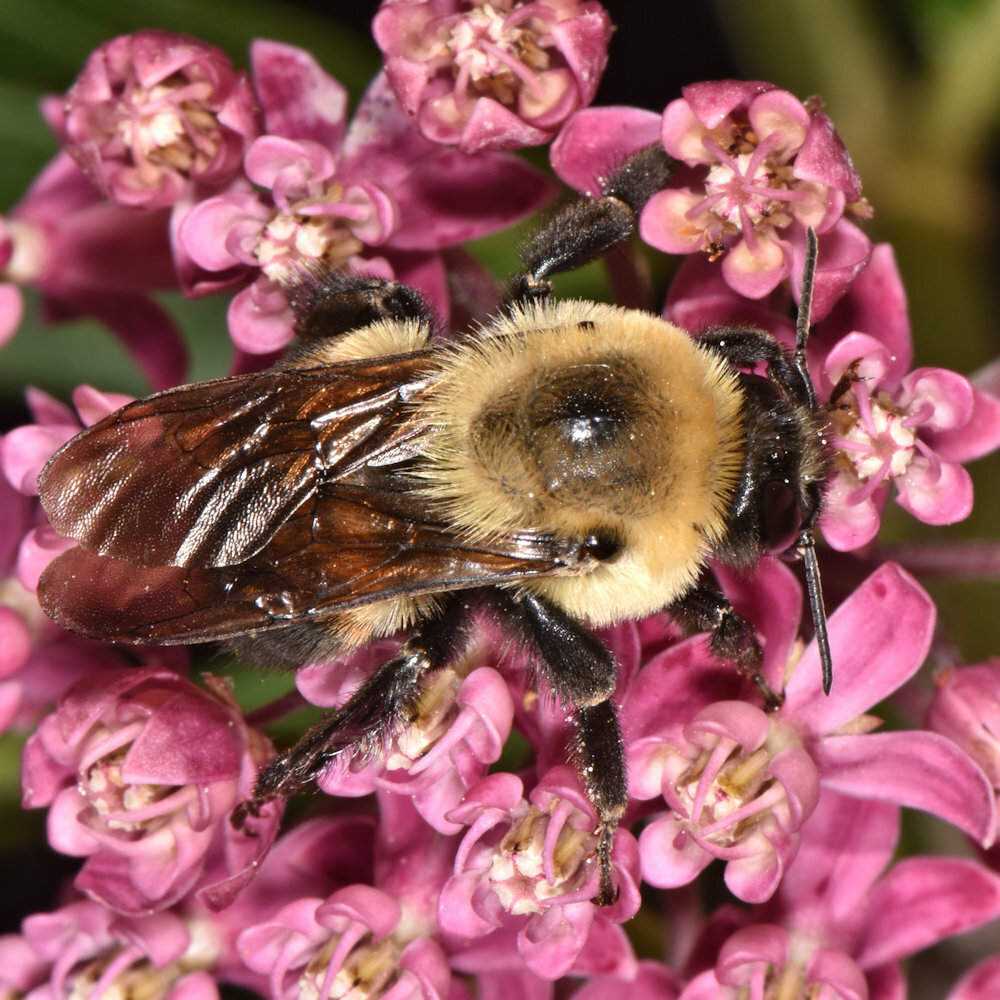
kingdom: Animalia
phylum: Arthropoda
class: Insecta
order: Hymenoptera
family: Apidae
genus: Bombus
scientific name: Bombus griseocollis
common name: Brown-belted bumble bee
